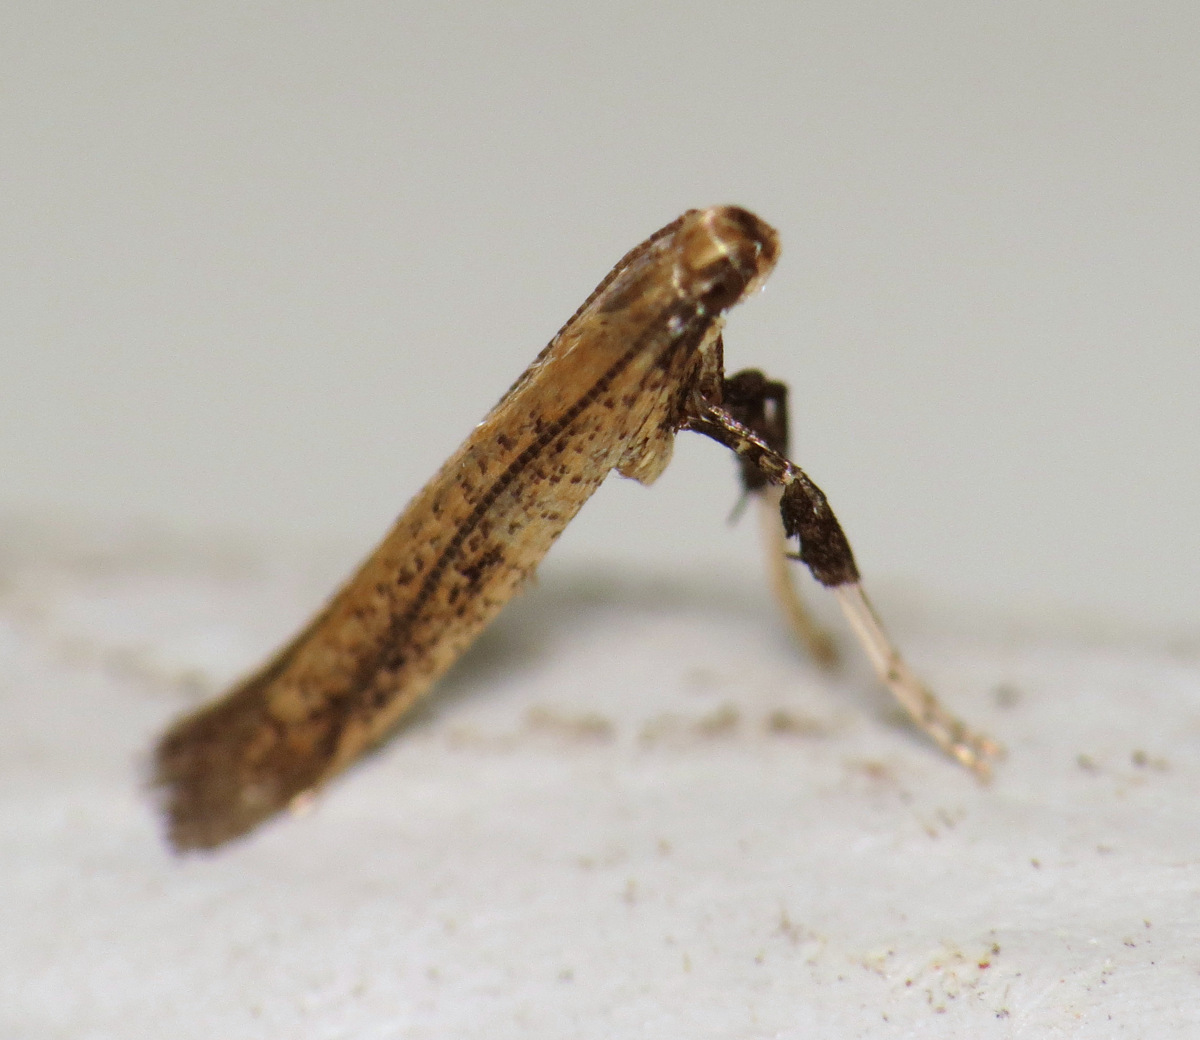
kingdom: Animalia
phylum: Arthropoda
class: Insecta
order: Lepidoptera
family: Gracillariidae
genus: Caloptilia
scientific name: Caloptilia hypericella
